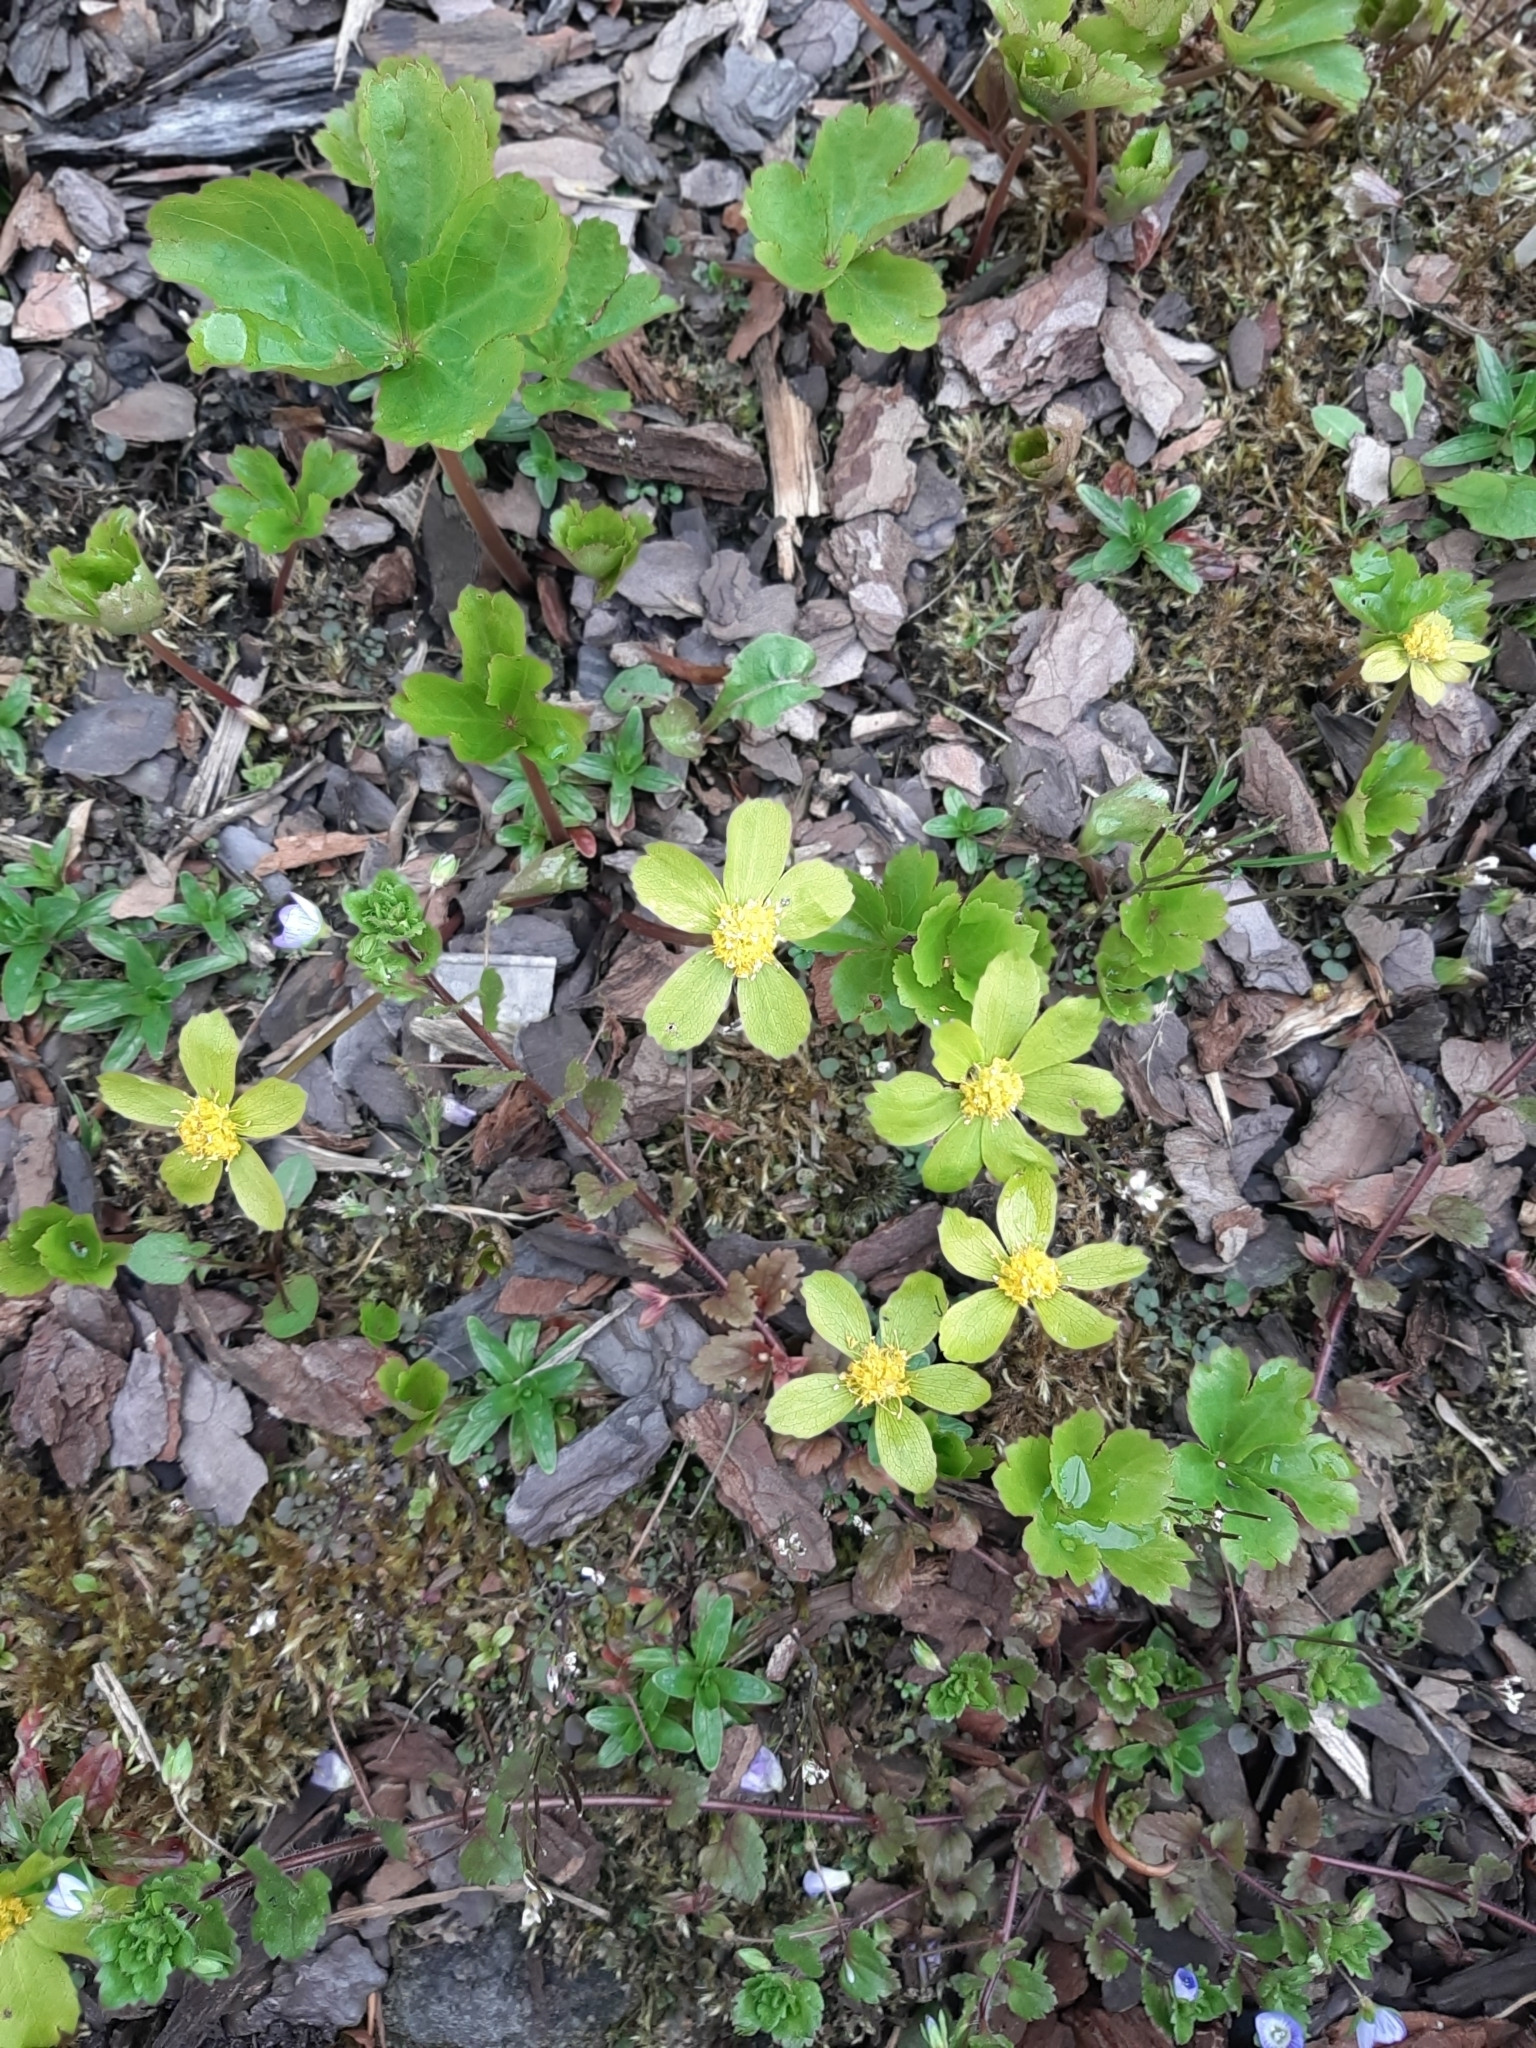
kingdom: Plantae
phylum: Tracheophyta
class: Magnoliopsida
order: Apiales
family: Apiaceae
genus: Sanicula
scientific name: Sanicula epipactis
